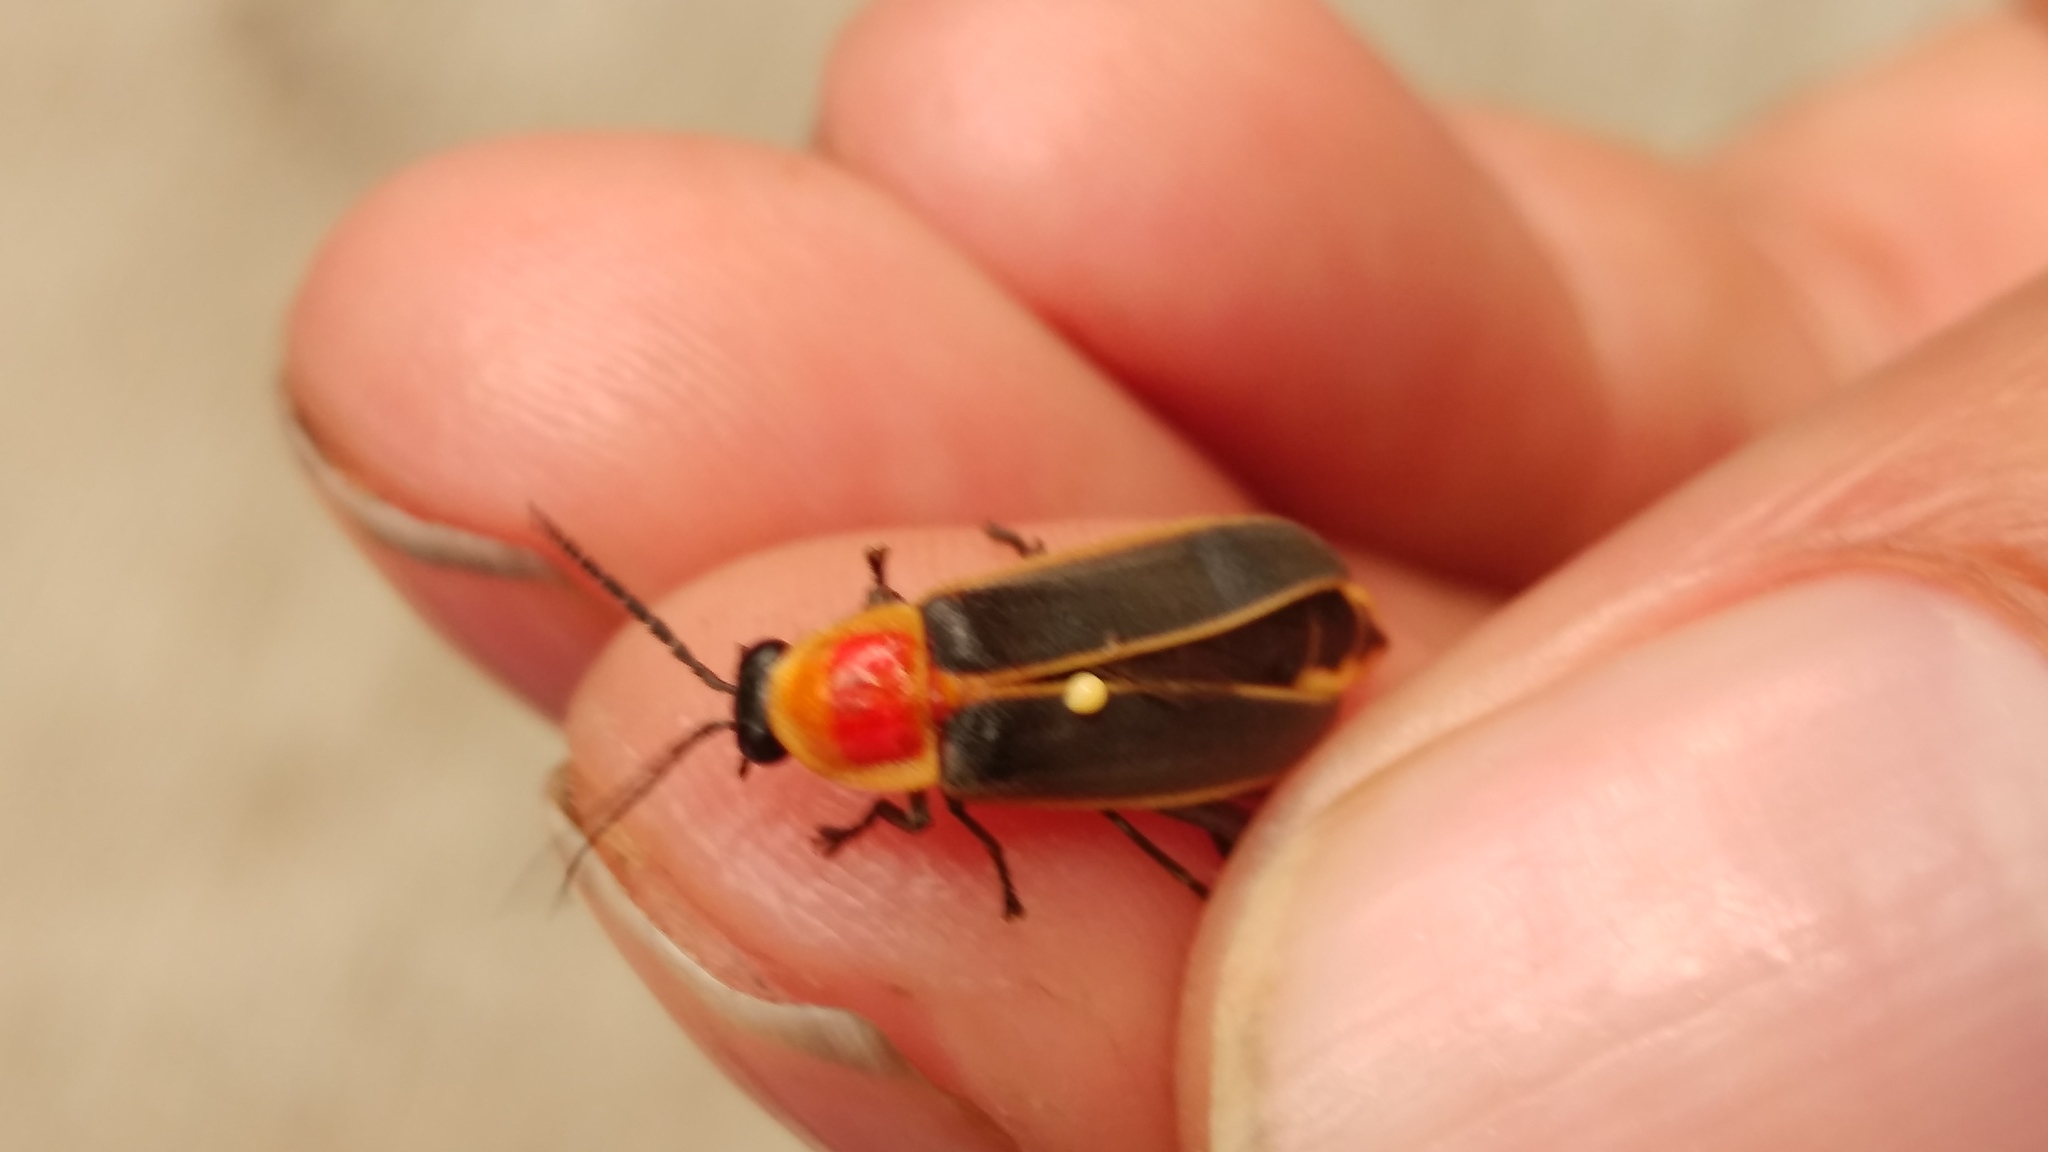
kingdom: Animalia
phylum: Arthropoda
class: Insecta
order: Coleoptera
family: Lampyridae
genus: Photinus
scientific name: Photinus
